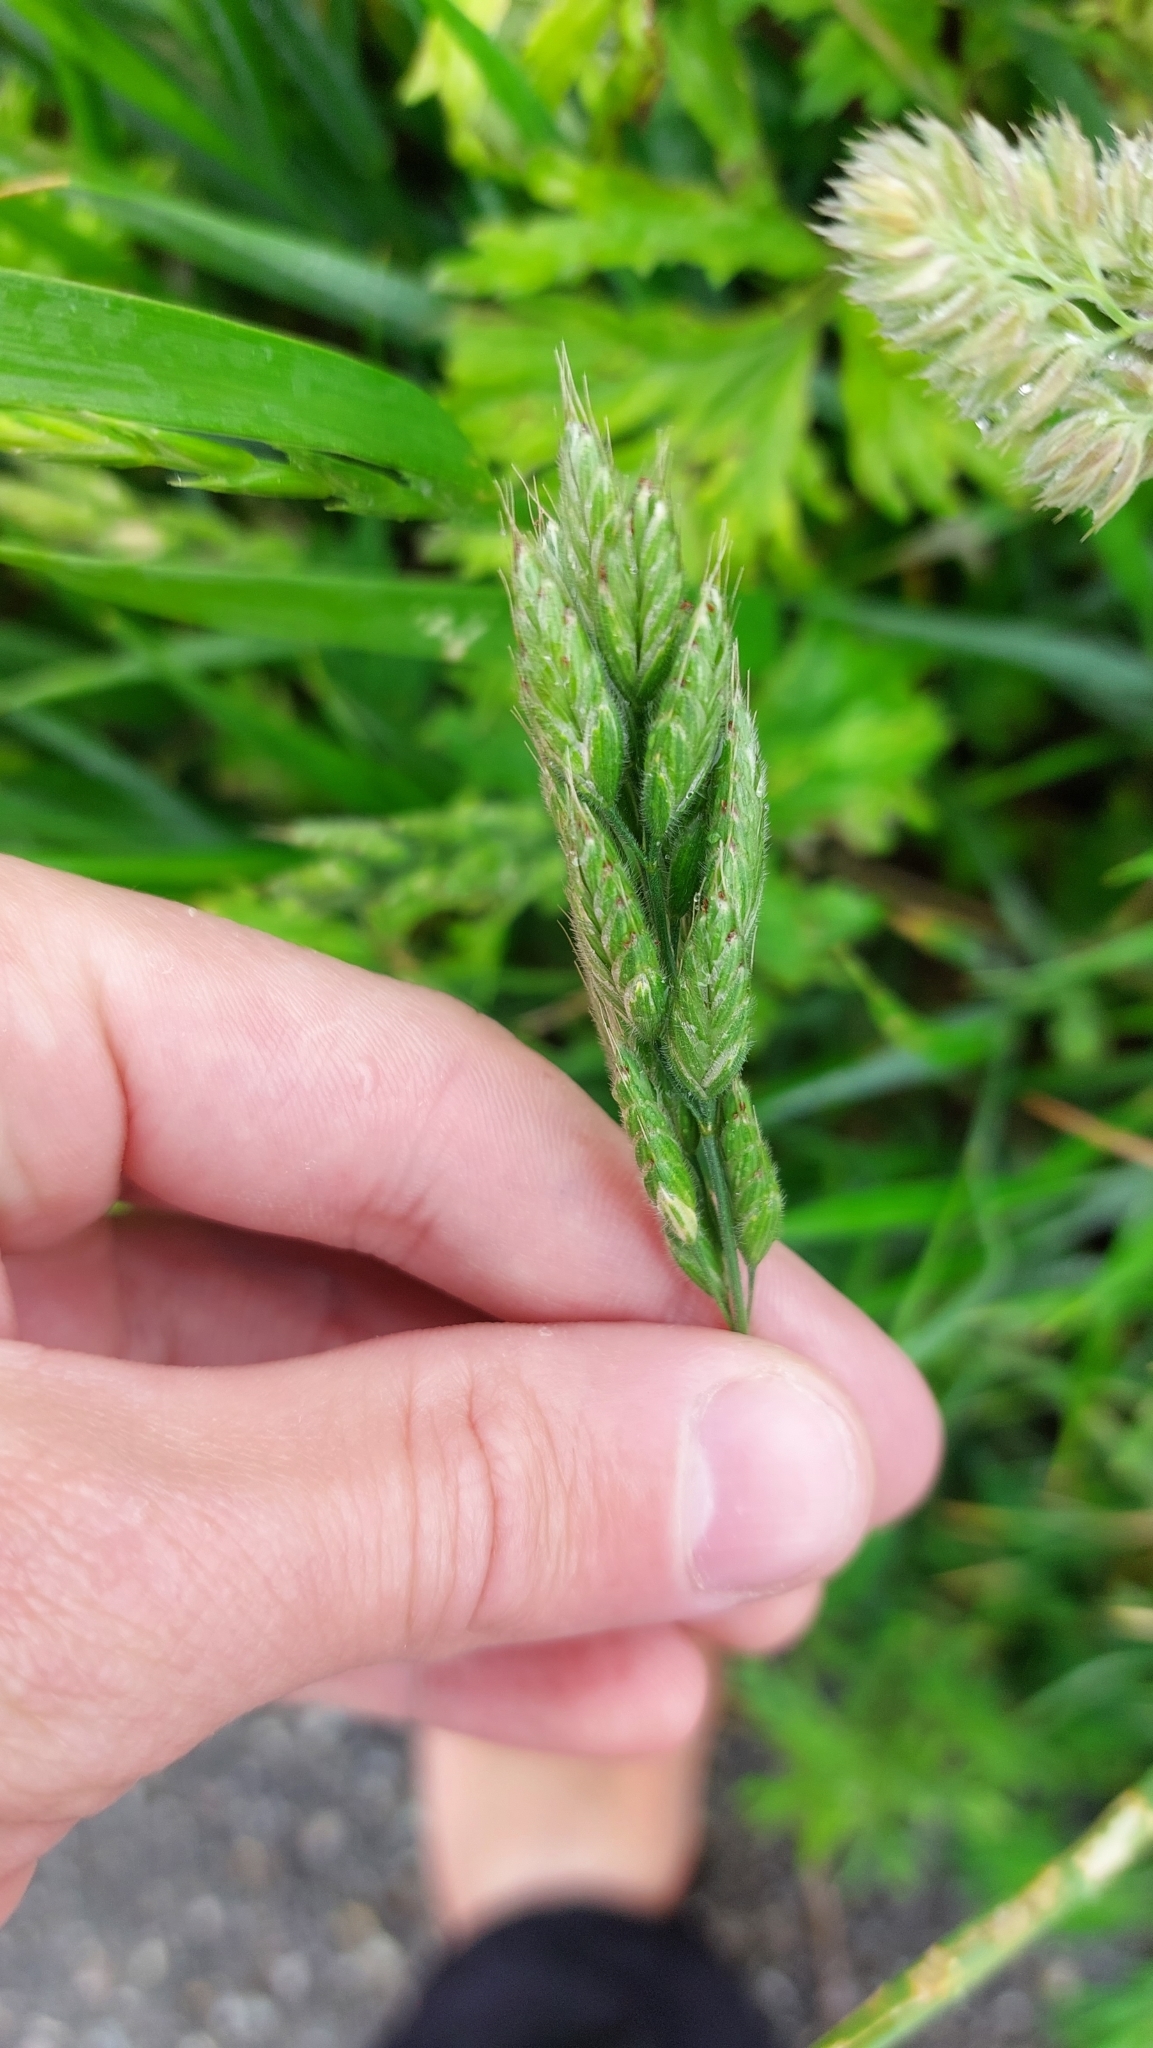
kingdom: Plantae
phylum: Tracheophyta
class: Liliopsida
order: Poales
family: Poaceae
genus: Bromus
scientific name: Bromus hordeaceus
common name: Soft brome
